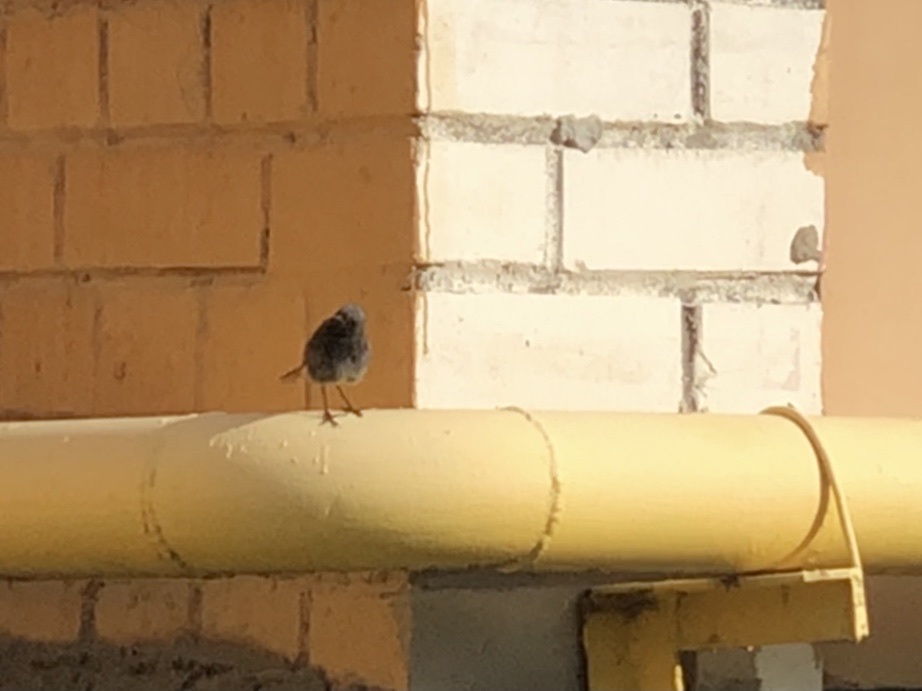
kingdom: Animalia
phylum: Chordata
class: Aves
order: Passeriformes
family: Muscicapidae
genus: Phoenicurus
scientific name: Phoenicurus ochruros
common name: Black redstart
